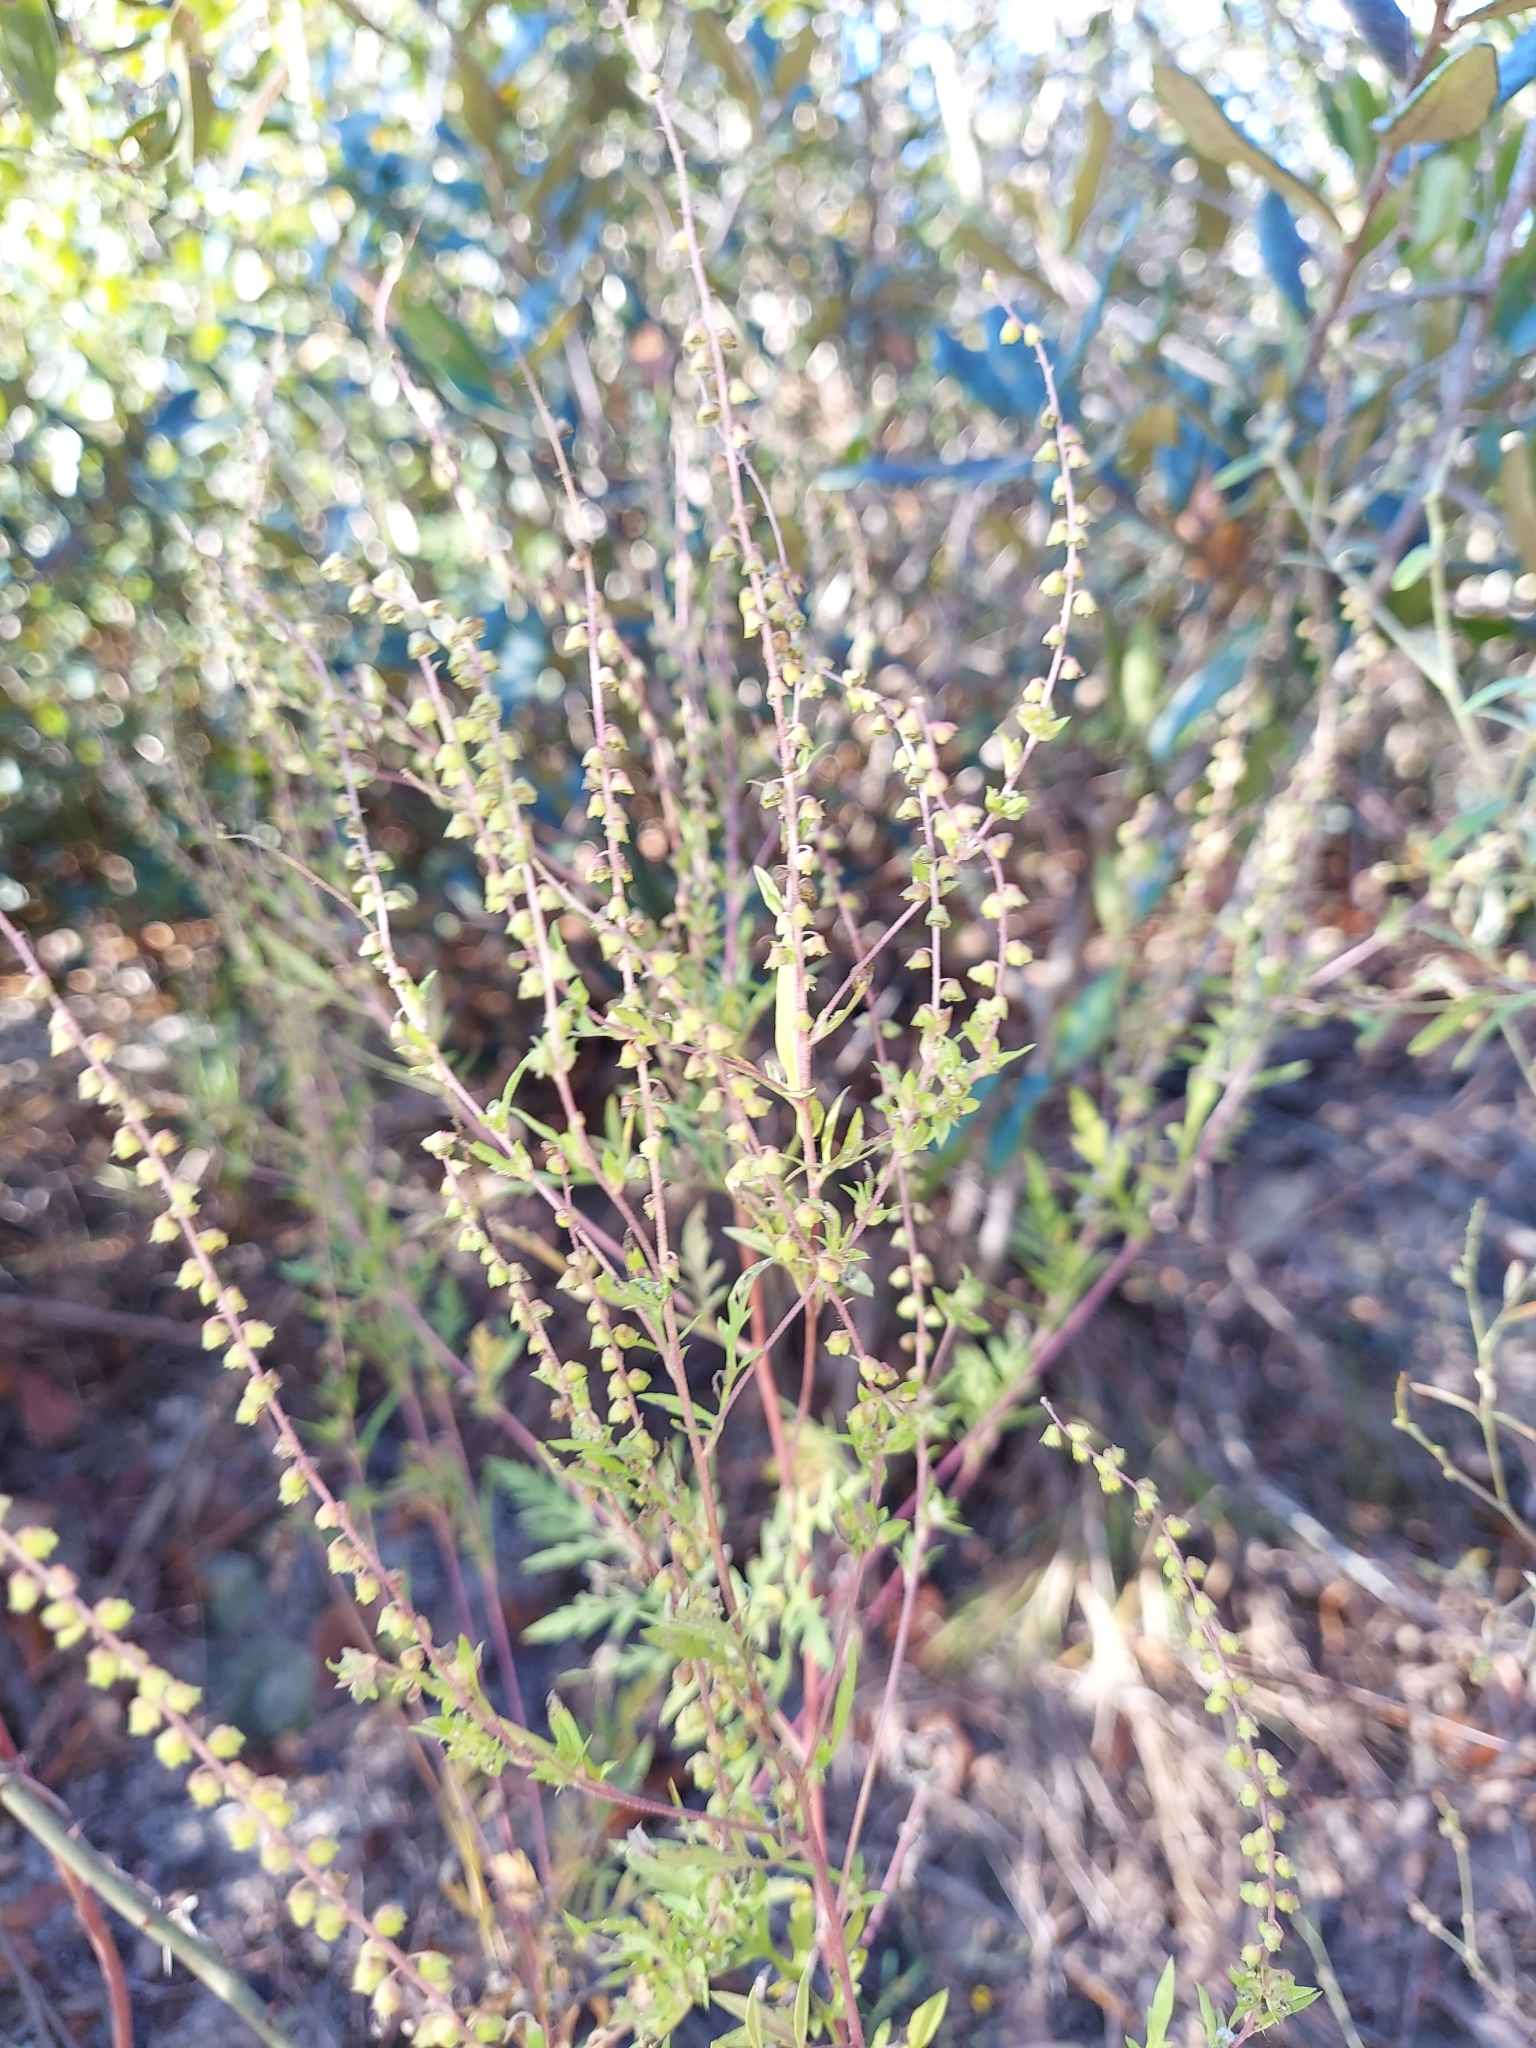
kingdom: Plantae
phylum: Tracheophyta
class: Magnoliopsida
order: Asterales
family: Asteraceae
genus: Ambrosia
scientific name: Ambrosia artemisiifolia
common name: Annual ragweed
